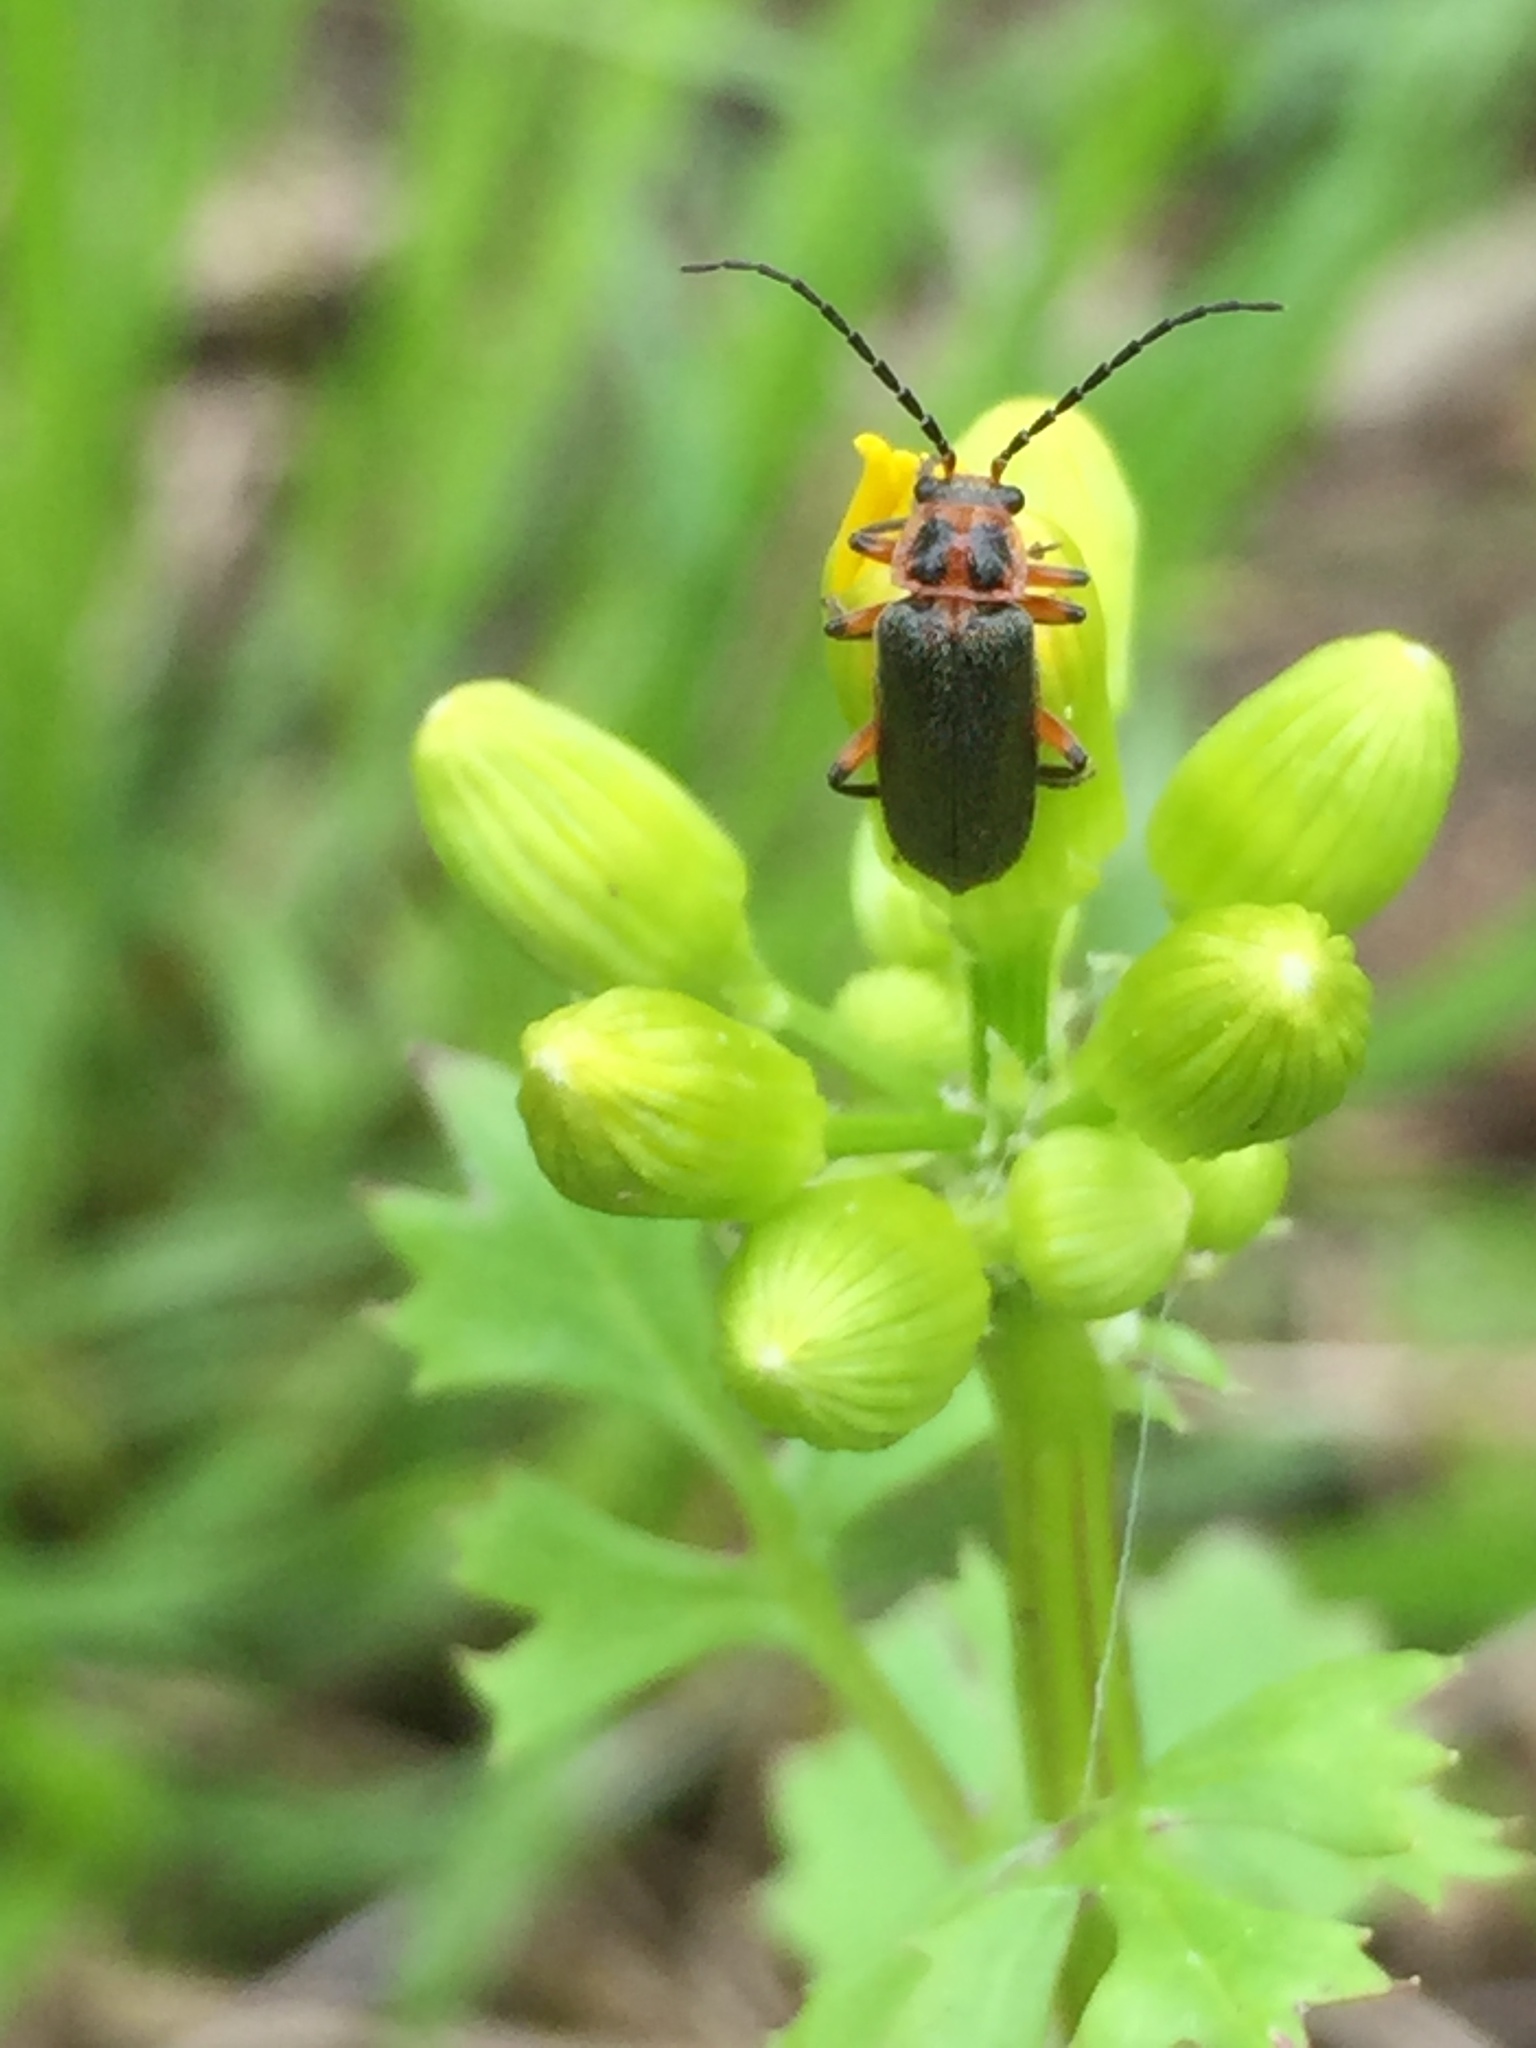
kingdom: Animalia
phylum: Arthropoda
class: Insecta
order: Coleoptera
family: Cantharidae
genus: Atalantycha
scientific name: Atalantycha bilineata
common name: Two-lined leatherwing
